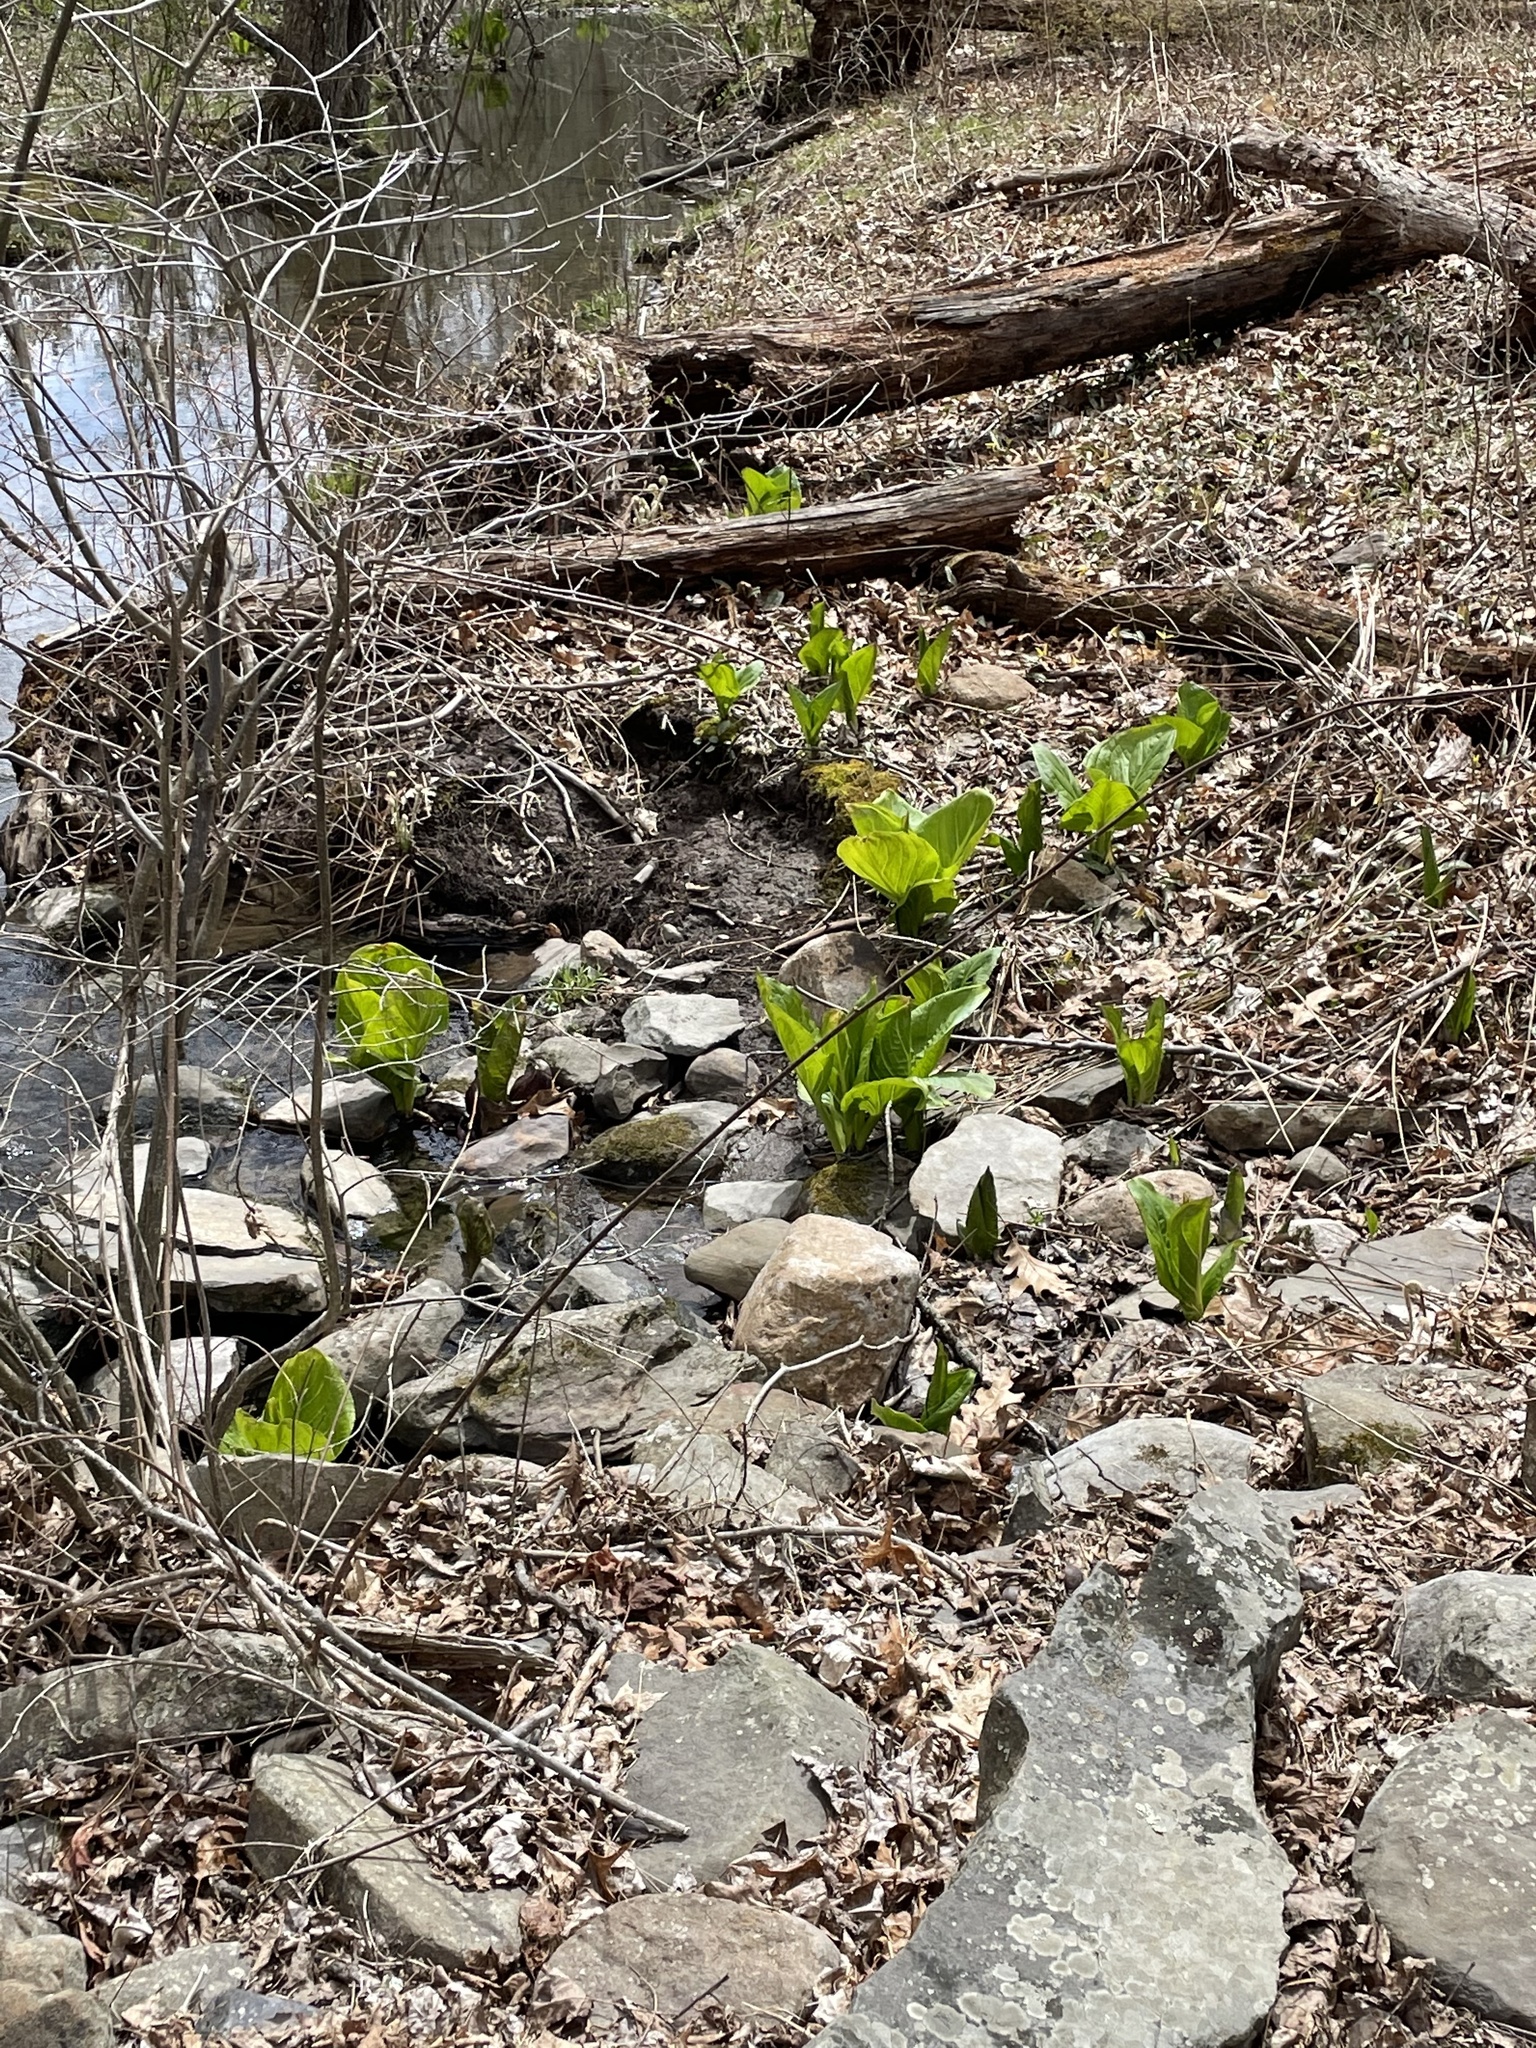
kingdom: Plantae
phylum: Tracheophyta
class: Liliopsida
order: Alismatales
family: Araceae
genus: Symplocarpus
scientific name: Symplocarpus foetidus
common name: Eastern skunk cabbage
